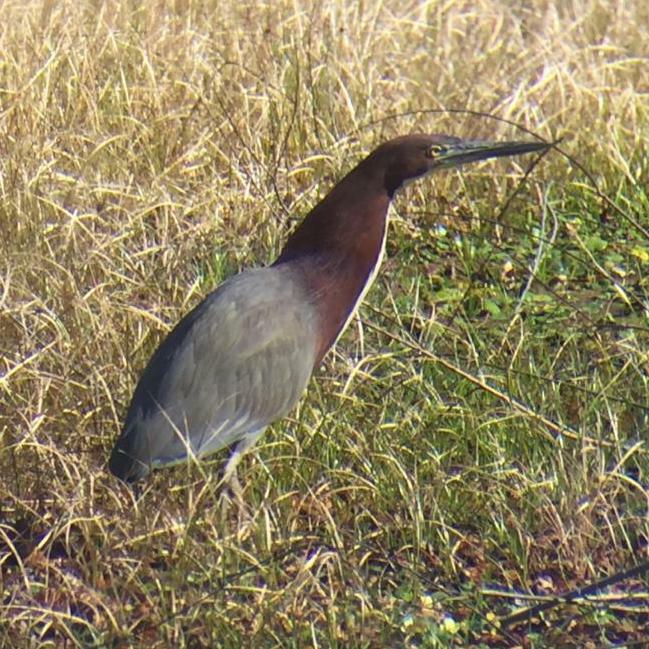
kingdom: Animalia
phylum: Chordata
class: Aves
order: Pelecaniformes
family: Ardeidae
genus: Tigrisoma
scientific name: Tigrisoma lineatum
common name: Rufescent tiger-heron
